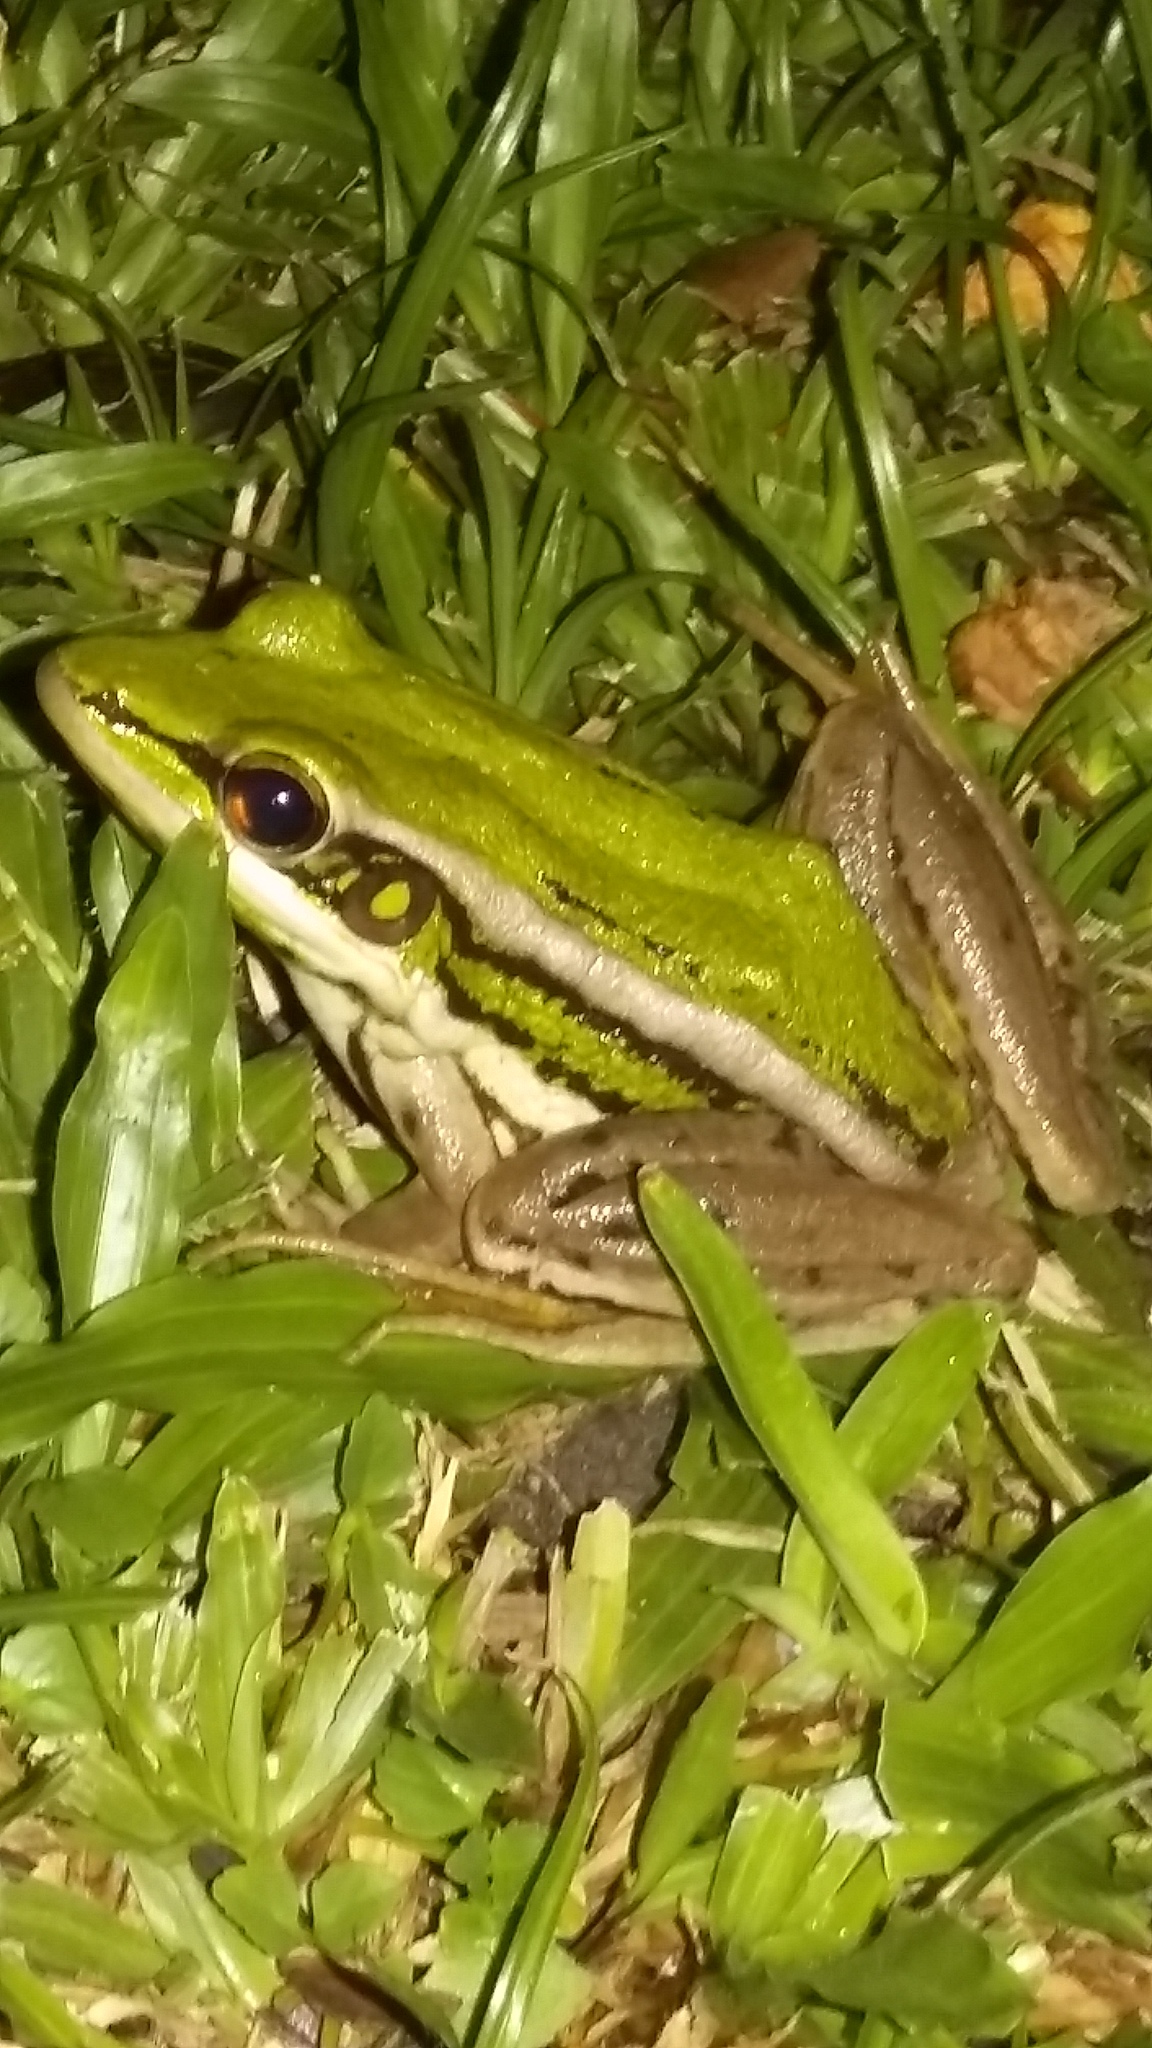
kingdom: Animalia
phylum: Chordata
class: Amphibia
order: Anura
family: Ranidae
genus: Hylarana
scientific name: Hylarana erythraea
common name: Common green frog/green paddy frog/leaf frog
